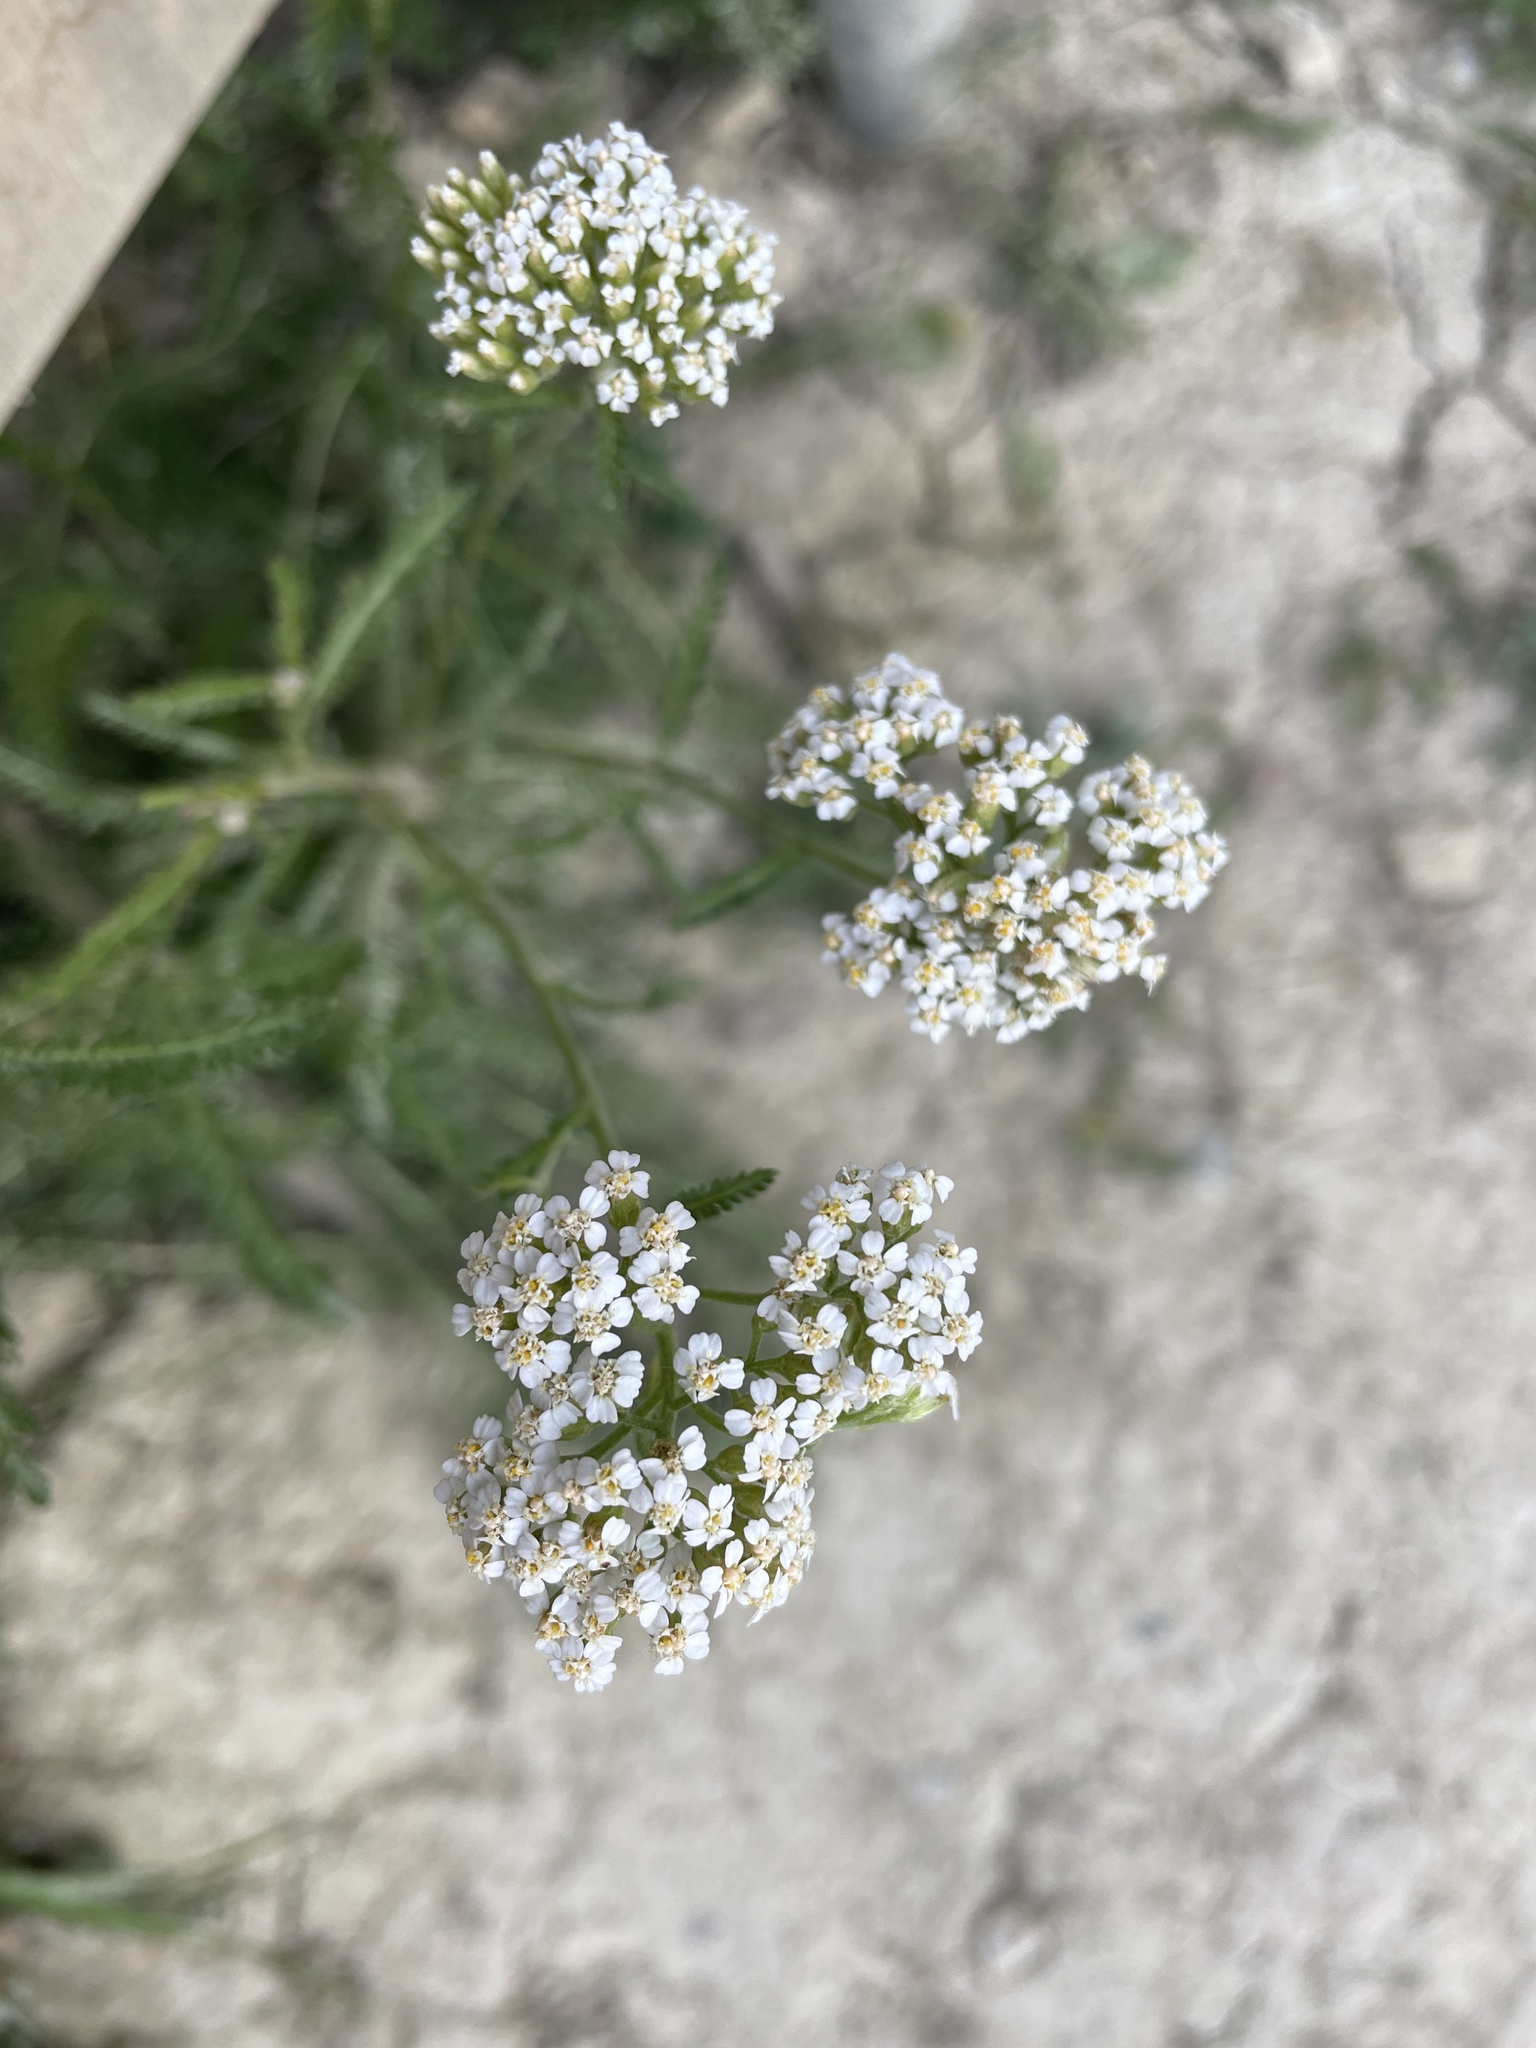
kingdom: Plantae
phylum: Tracheophyta
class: Magnoliopsida
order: Asterales
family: Asteraceae
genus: Achillea
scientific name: Achillea millefolium
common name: Yarrow
